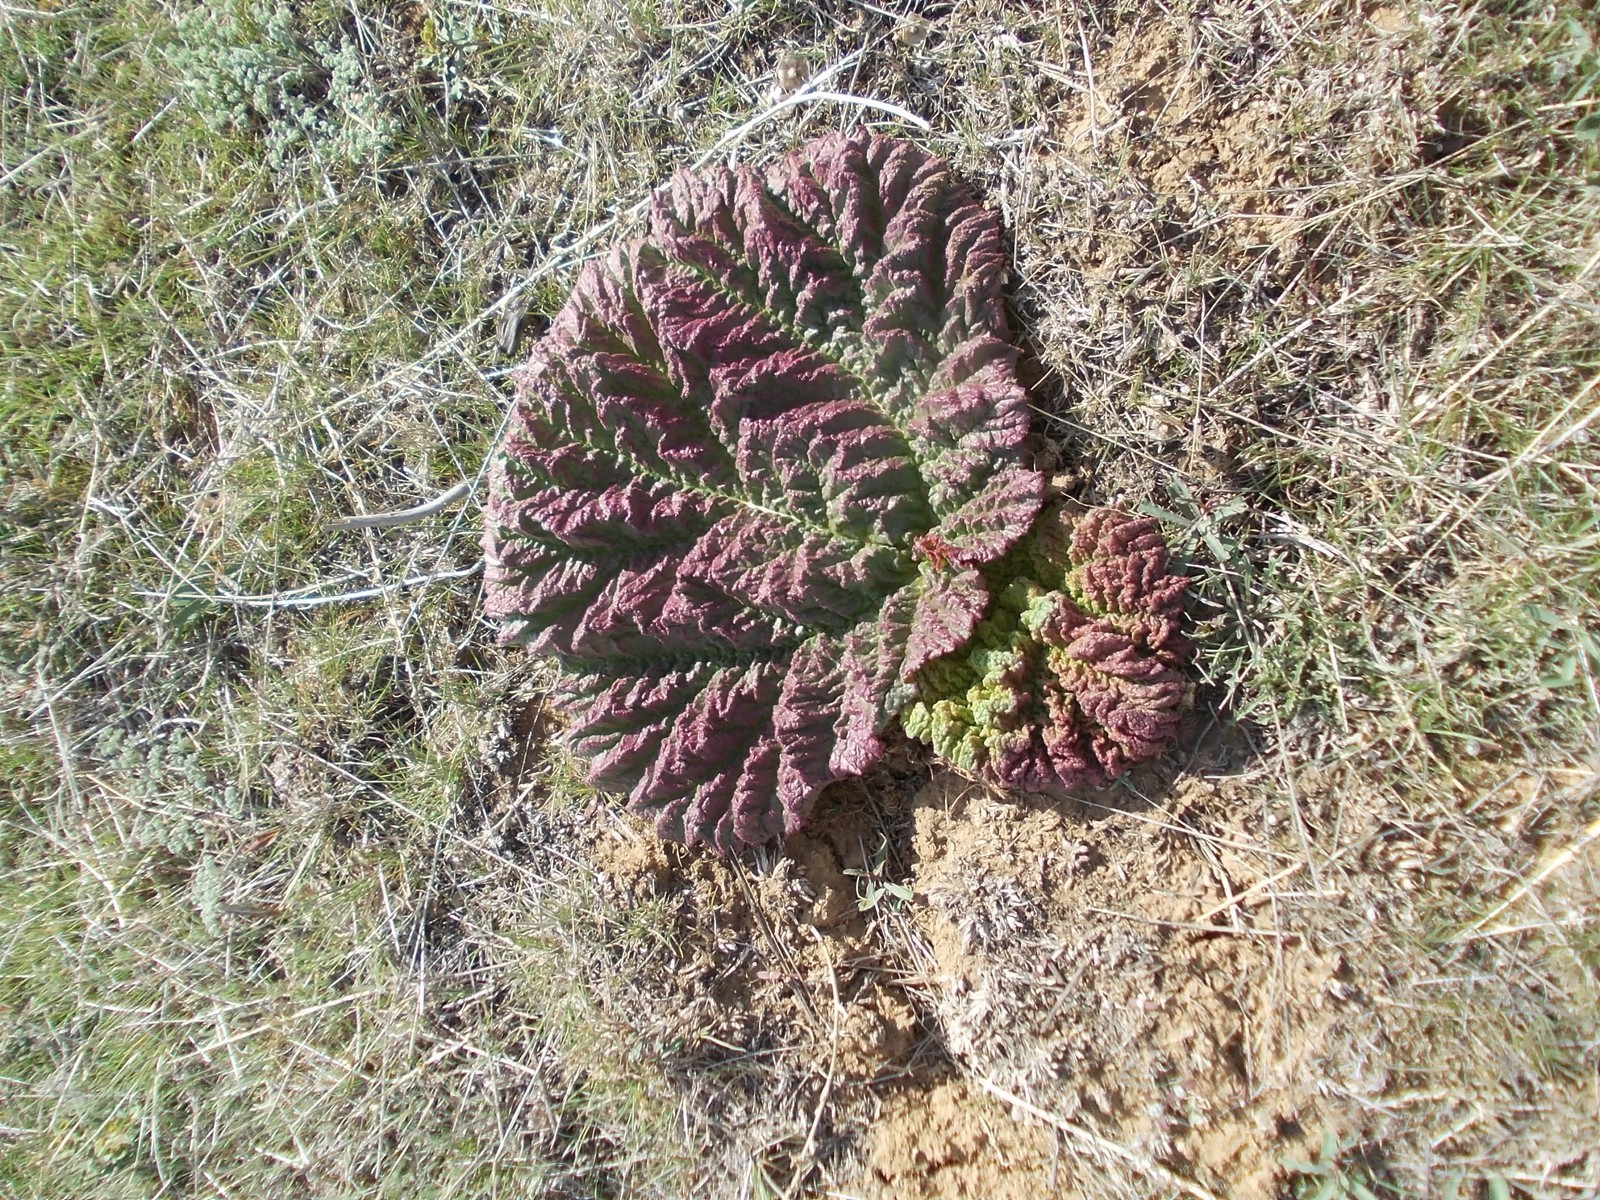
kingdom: Plantae
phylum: Tracheophyta
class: Magnoliopsida
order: Caryophyllales
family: Polygonaceae
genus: Rheum
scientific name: Rheum tataricum
